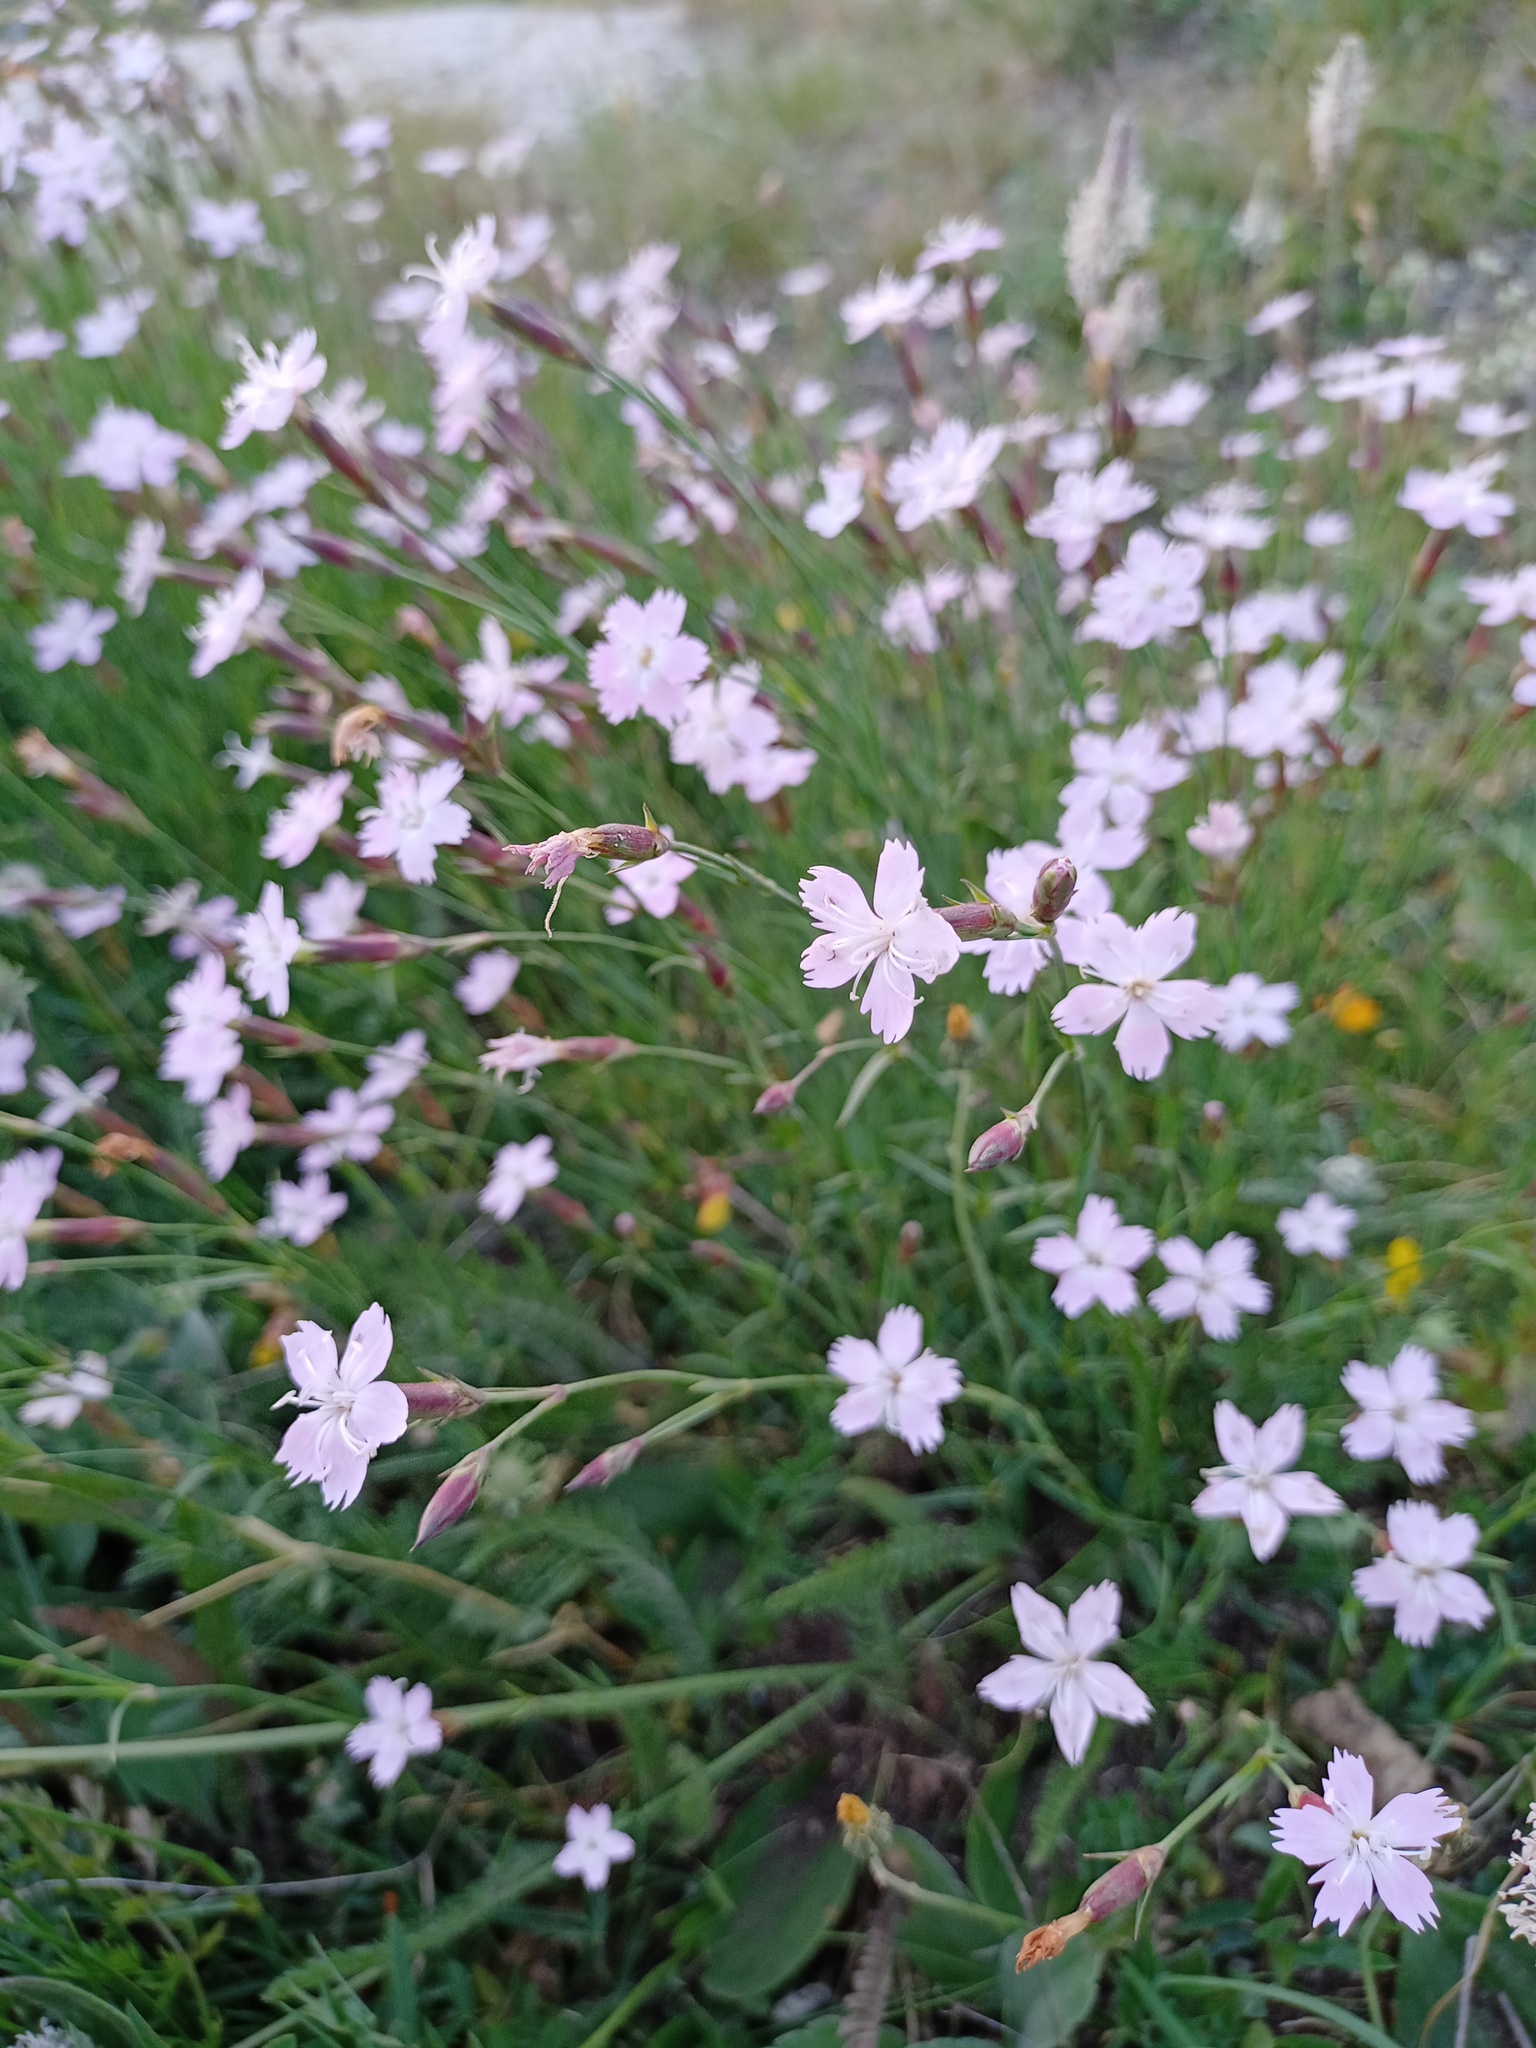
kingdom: Plantae
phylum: Tracheophyta
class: Magnoliopsida
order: Caryophyllales
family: Caryophyllaceae
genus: Dianthus
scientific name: Dianthus furcatus
